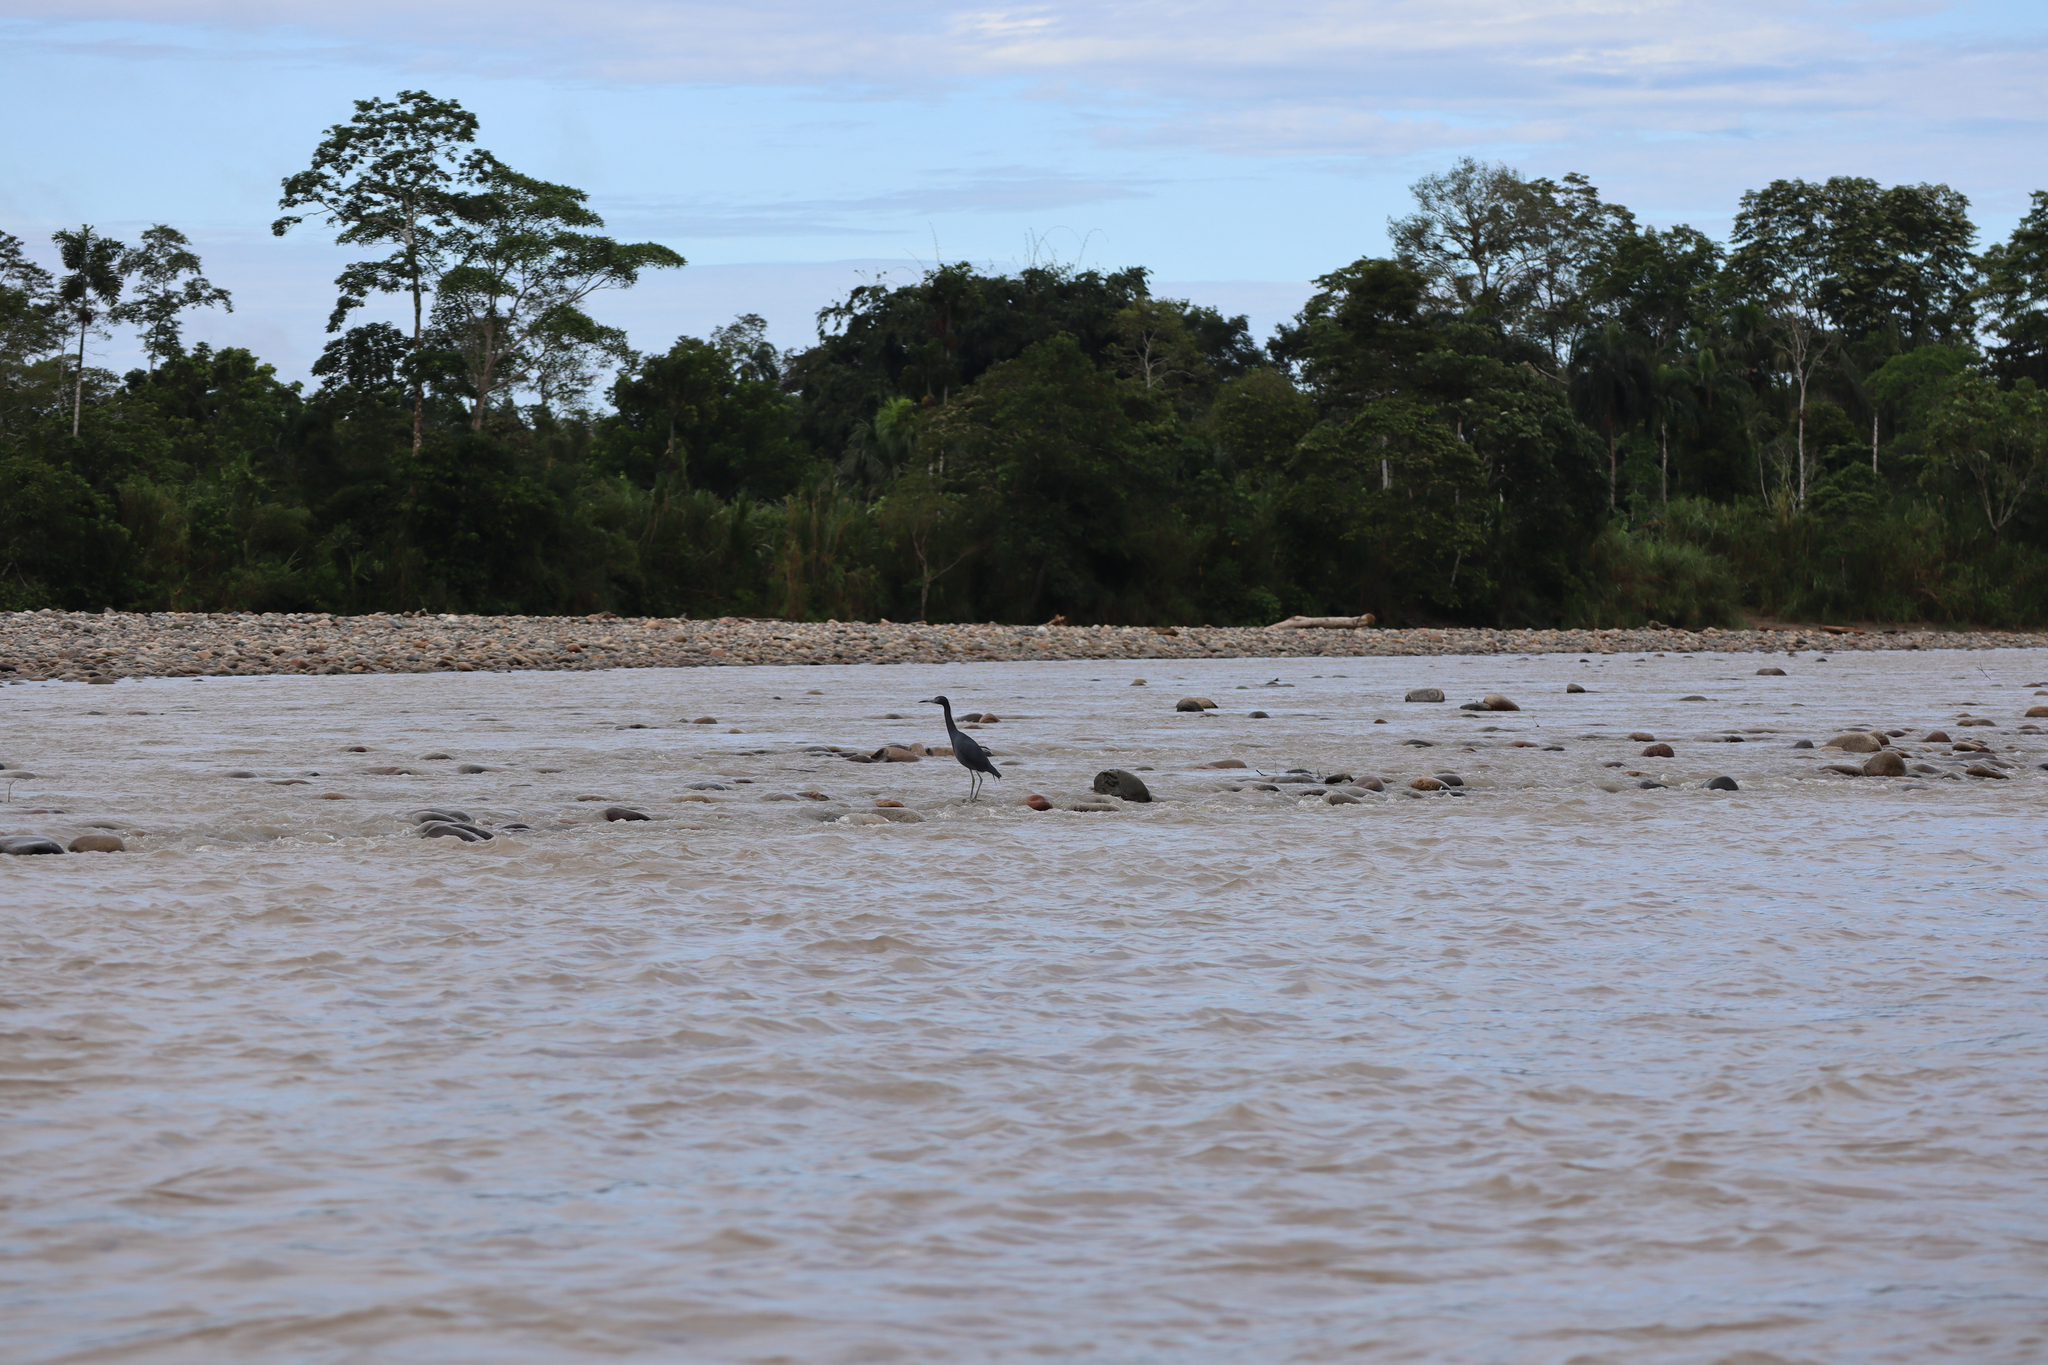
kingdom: Animalia
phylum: Chordata
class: Aves
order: Pelecaniformes
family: Ardeidae
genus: Egretta
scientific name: Egretta caerulea
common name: Little blue heron
